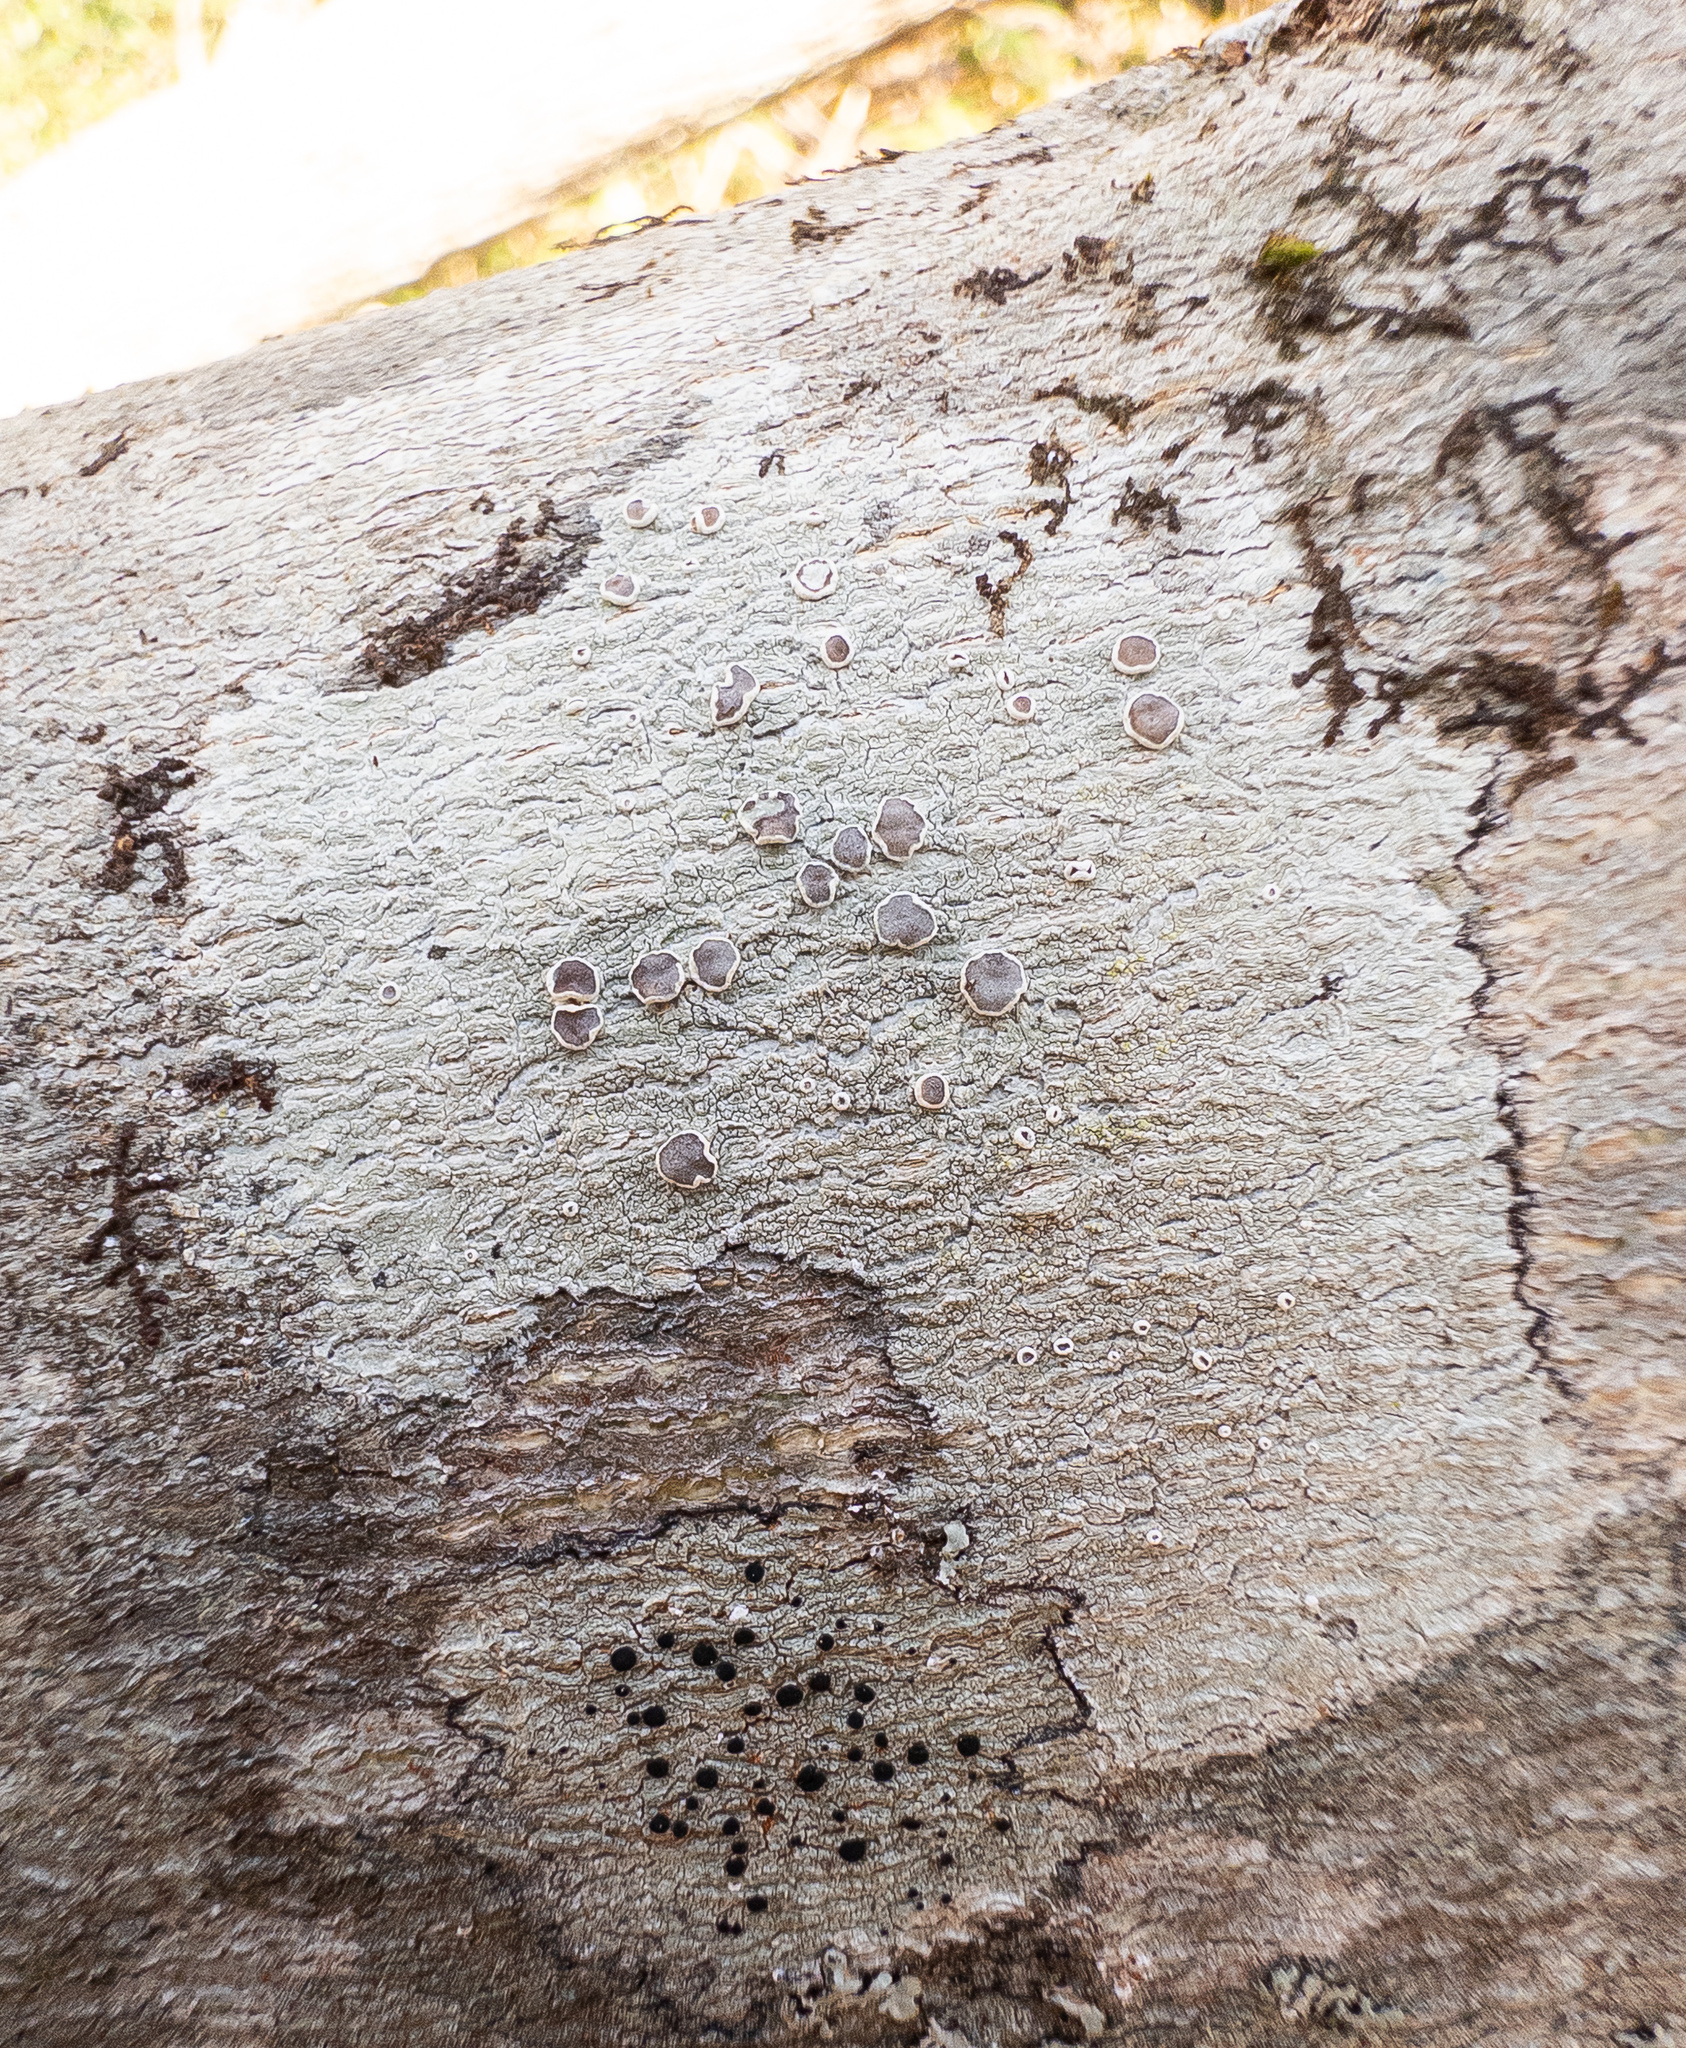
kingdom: Fungi
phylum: Ascomycota
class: Lecanoromycetes
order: Lecanorales
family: Lecanoraceae
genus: Lecanora
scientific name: Lecanora protervula
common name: Lesser dust my discs
